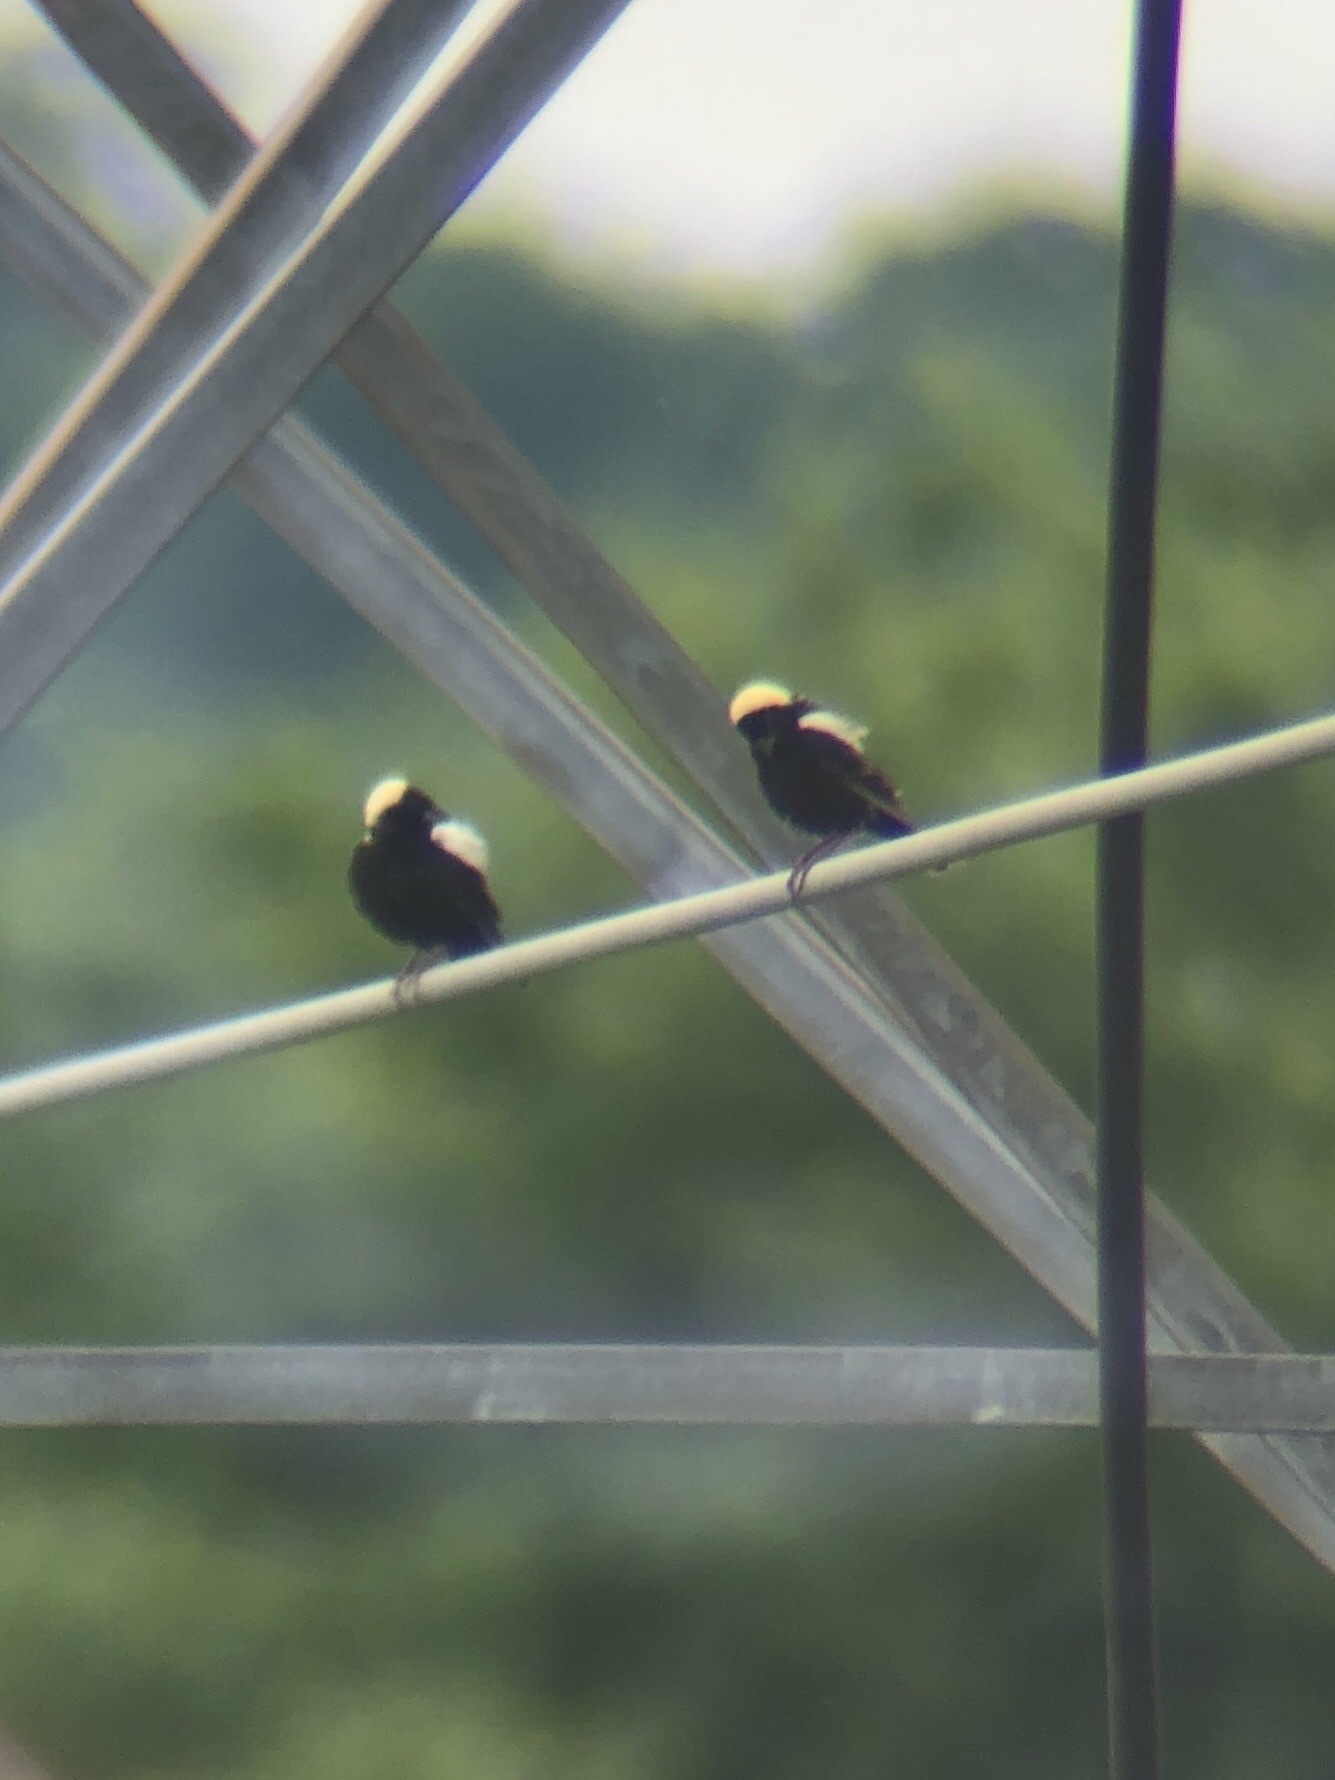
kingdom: Animalia
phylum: Chordata
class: Aves
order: Passeriformes
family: Icteridae
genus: Dolichonyx
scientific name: Dolichonyx oryzivorus
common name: Bobolink
